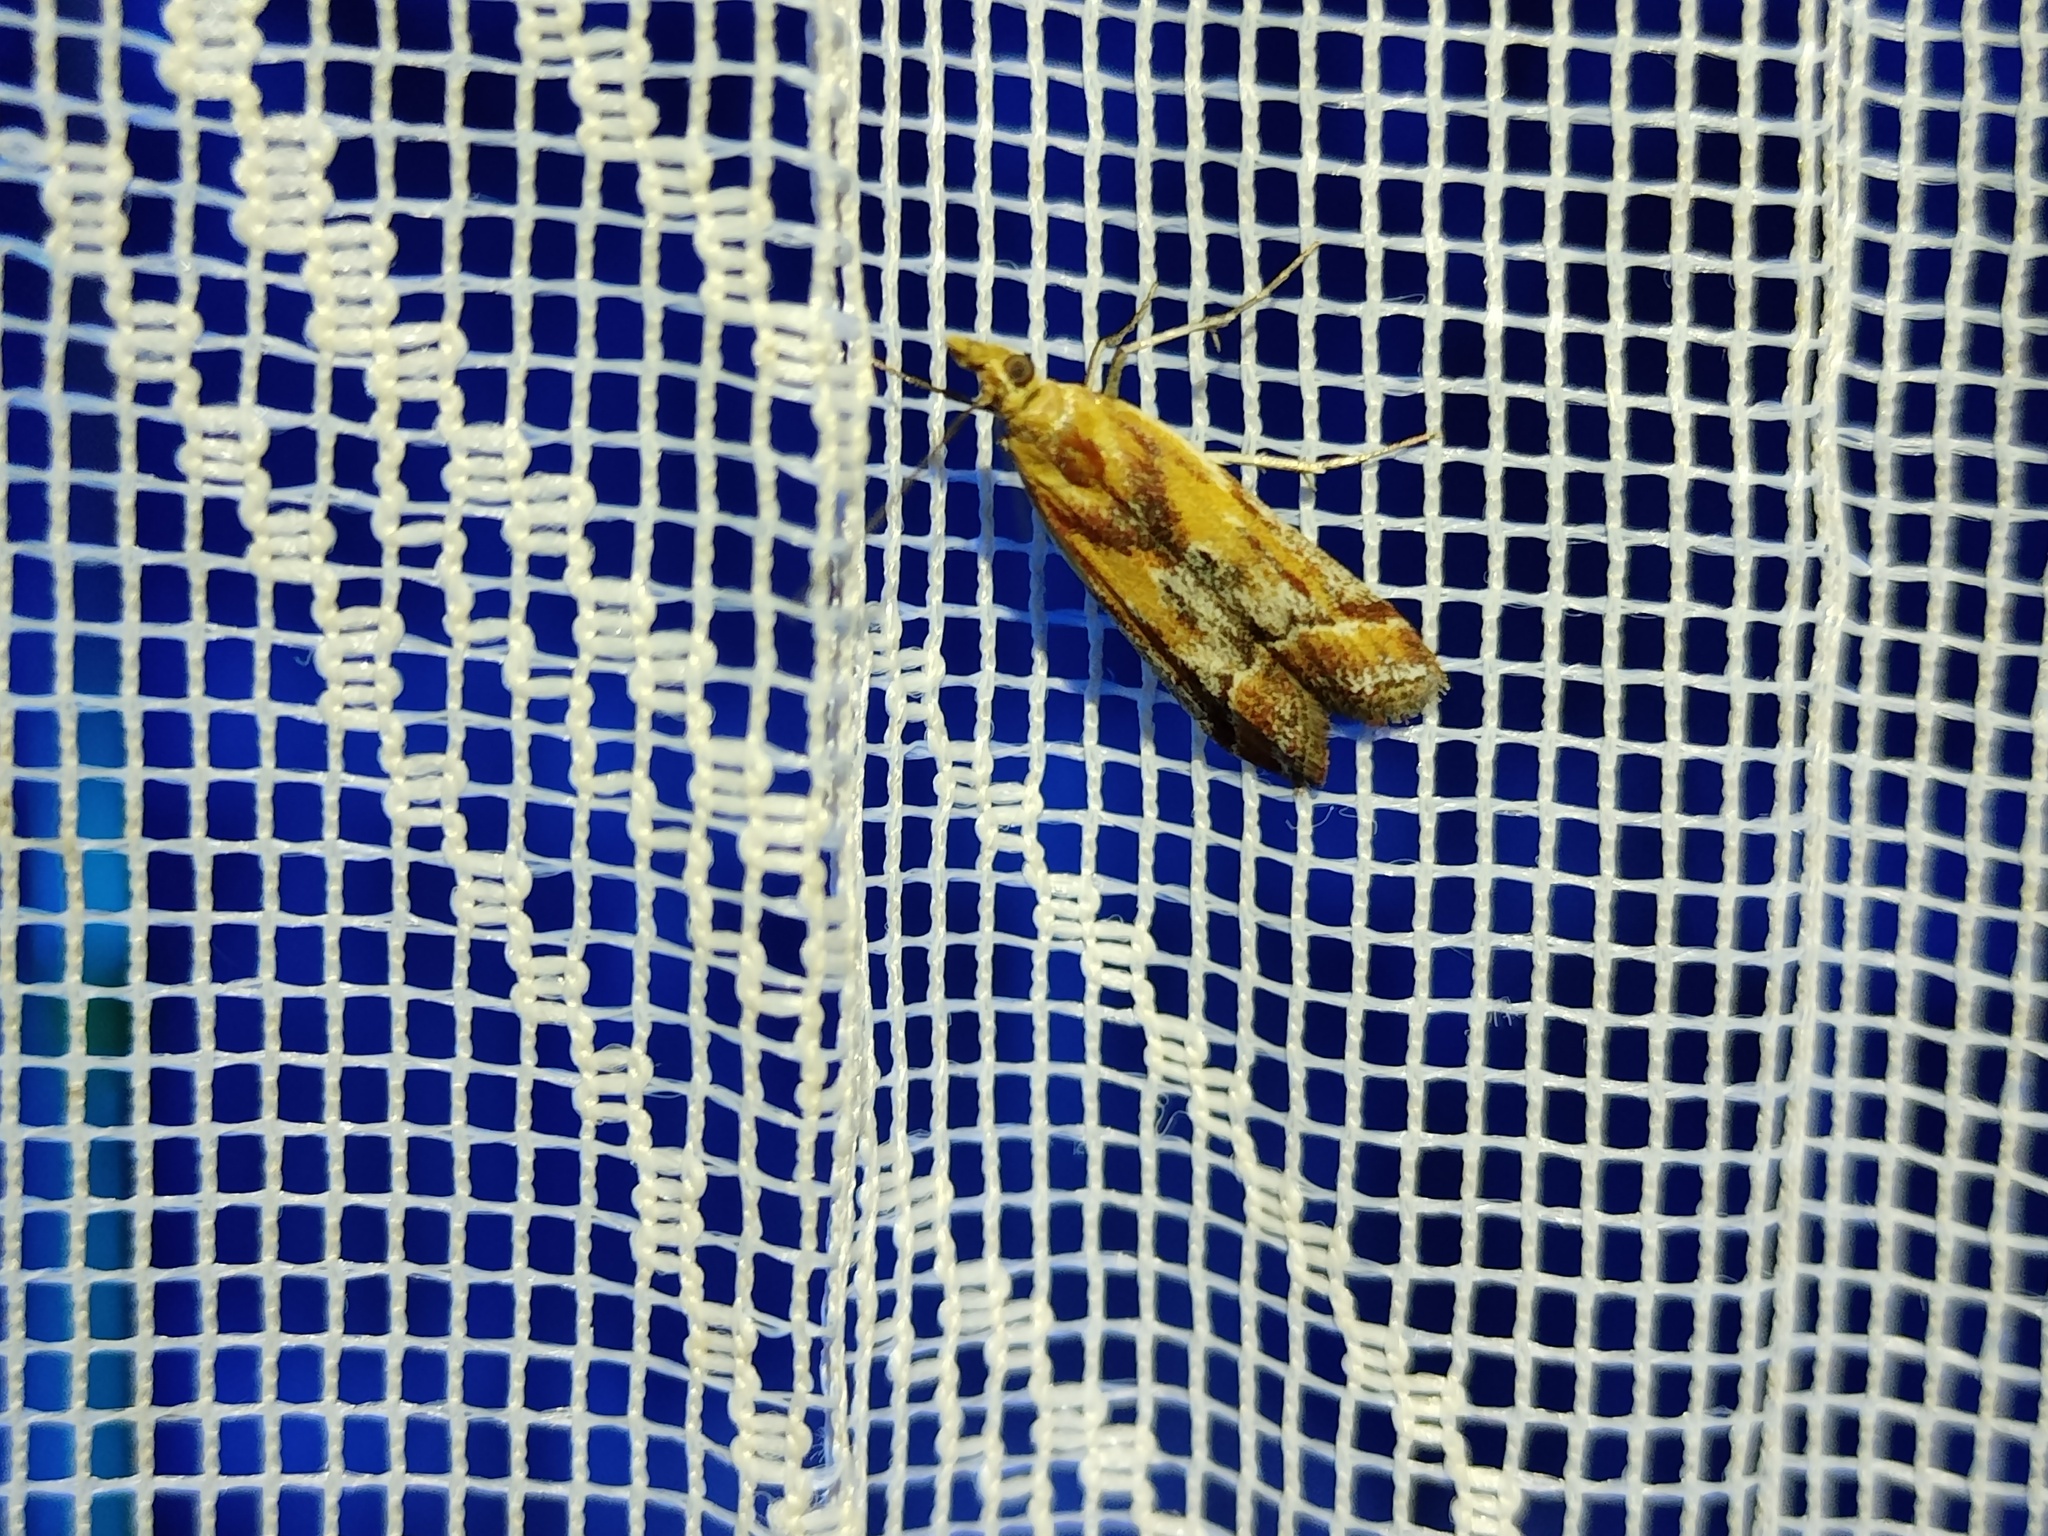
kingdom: Animalia
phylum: Arthropoda
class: Insecta
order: Lepidoptera
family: Pyralidae
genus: Ancylosis
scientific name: Ancylosis cinnamomella
